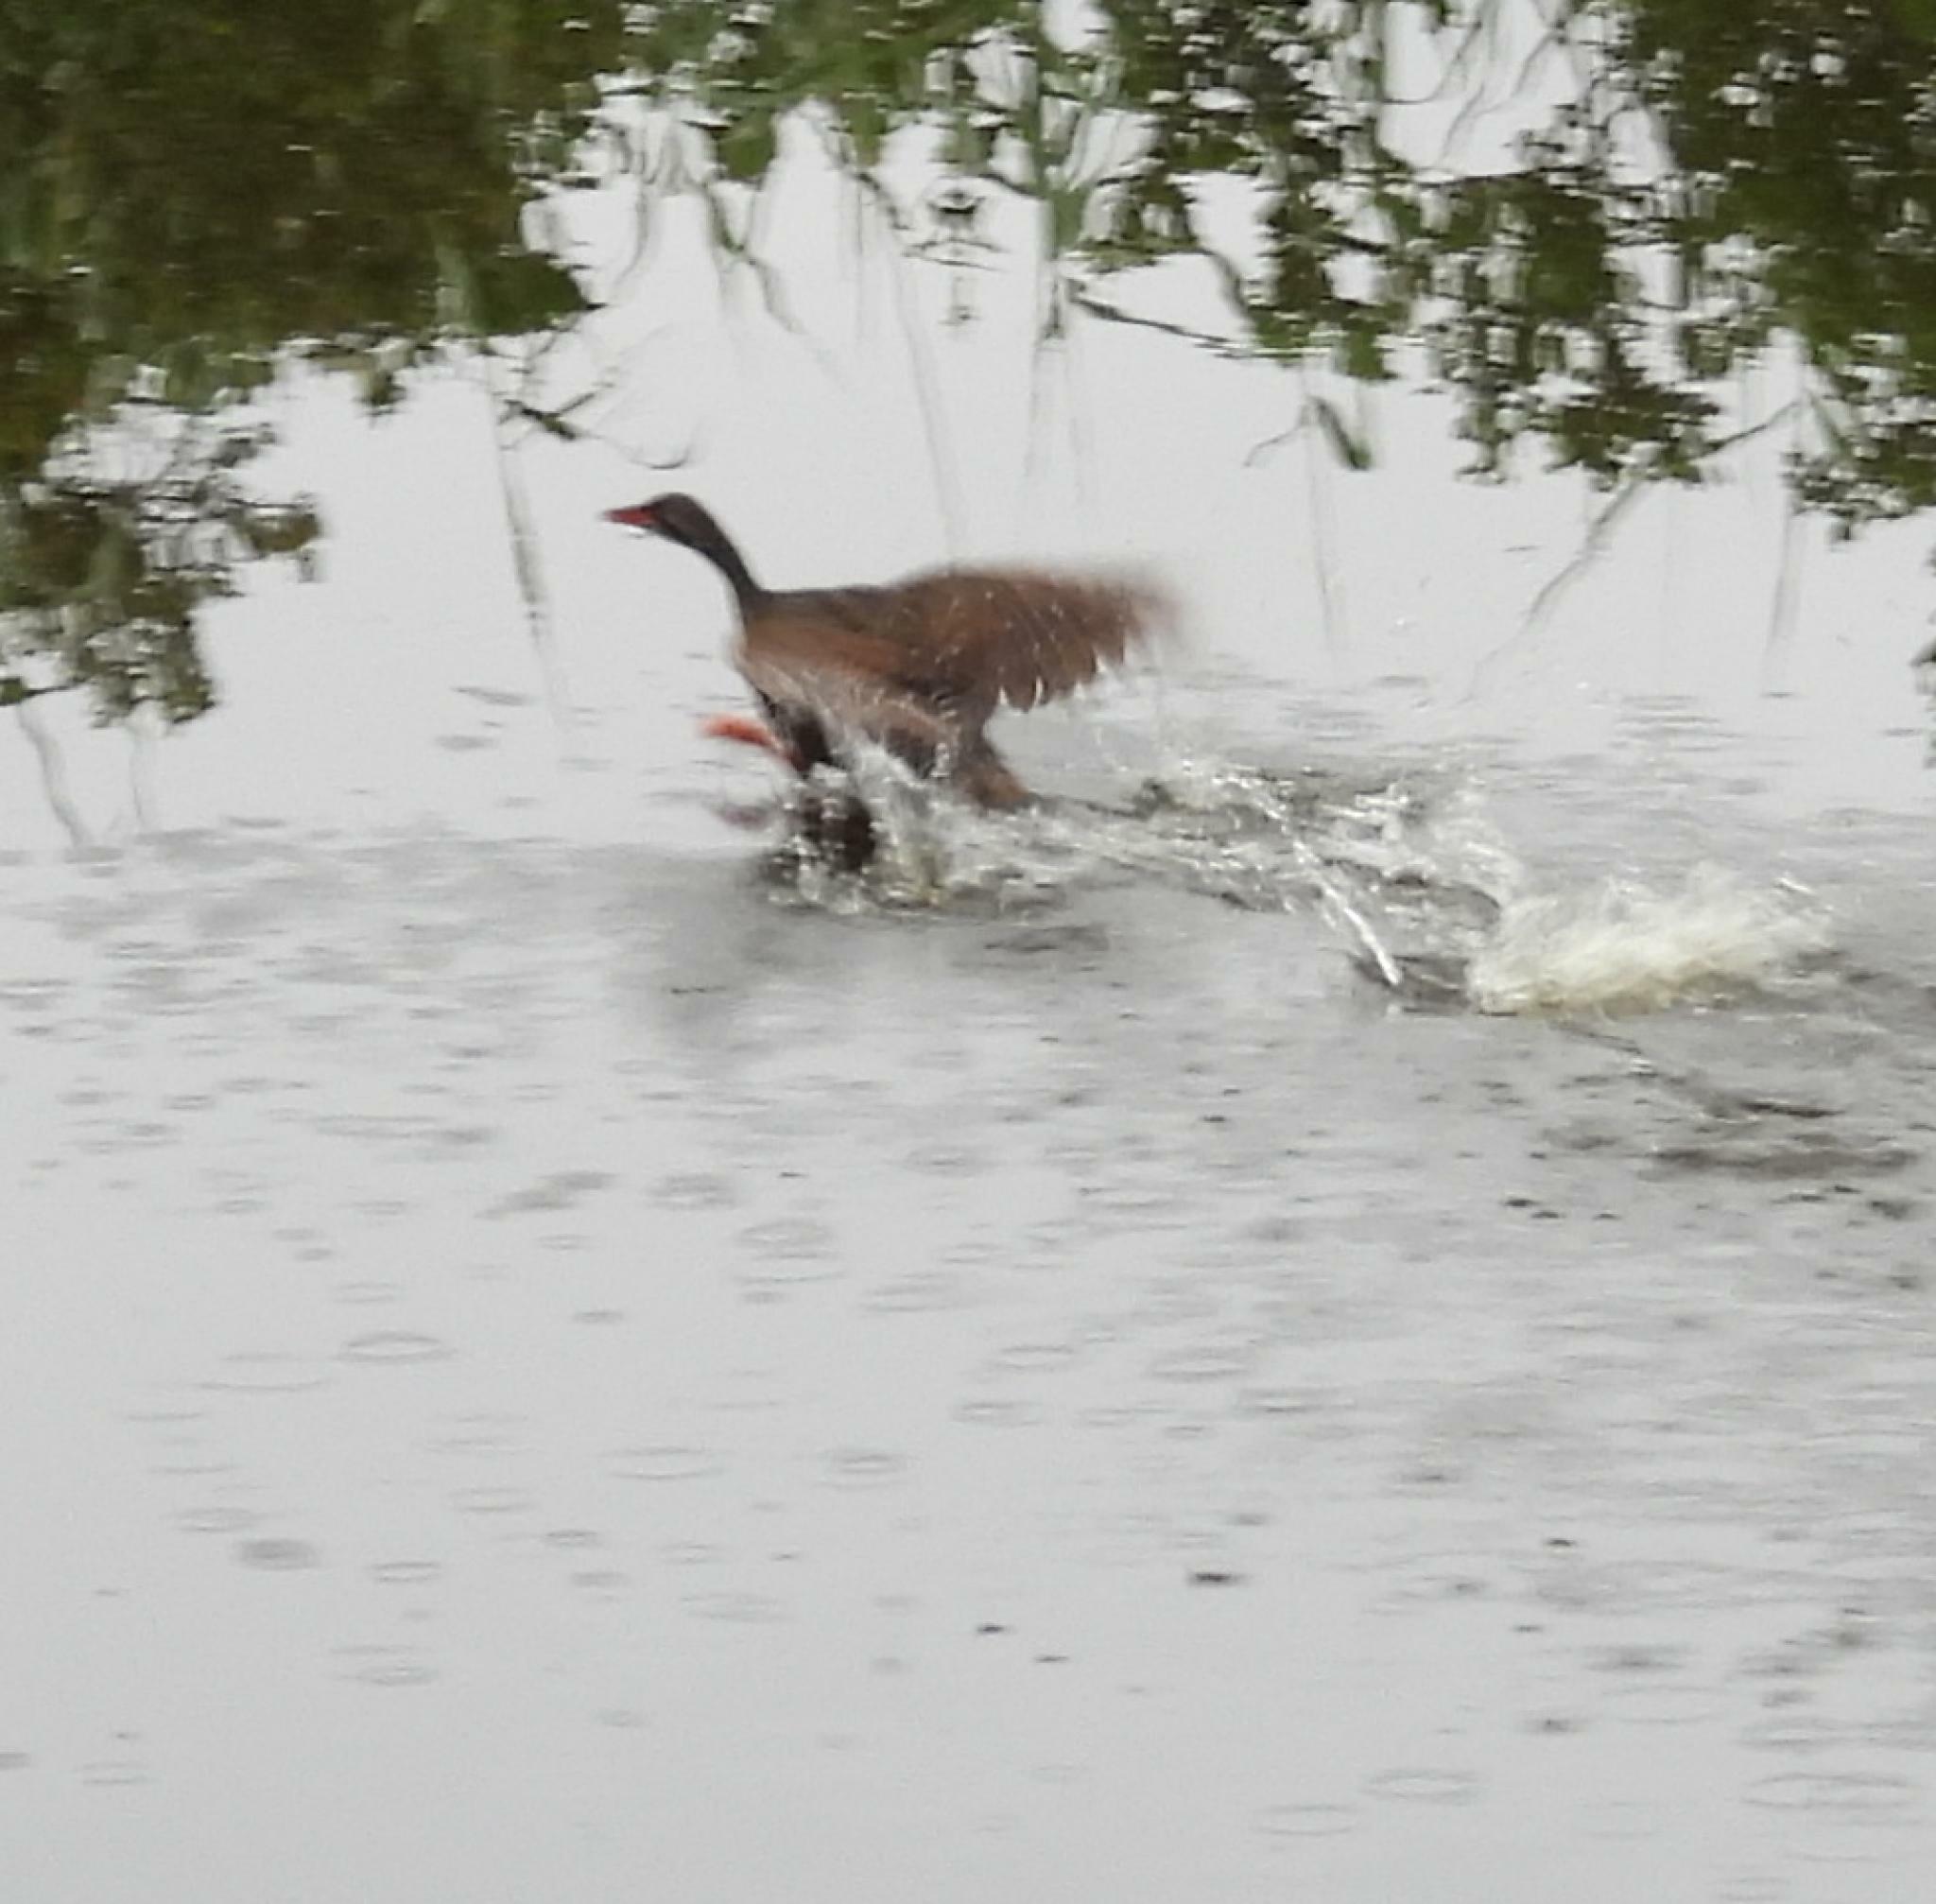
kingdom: Animalia
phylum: Chordata
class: Aves
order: Gruiformes
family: Heliornithidae
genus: Podica
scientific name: Podica senegalensis
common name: African finfoot
